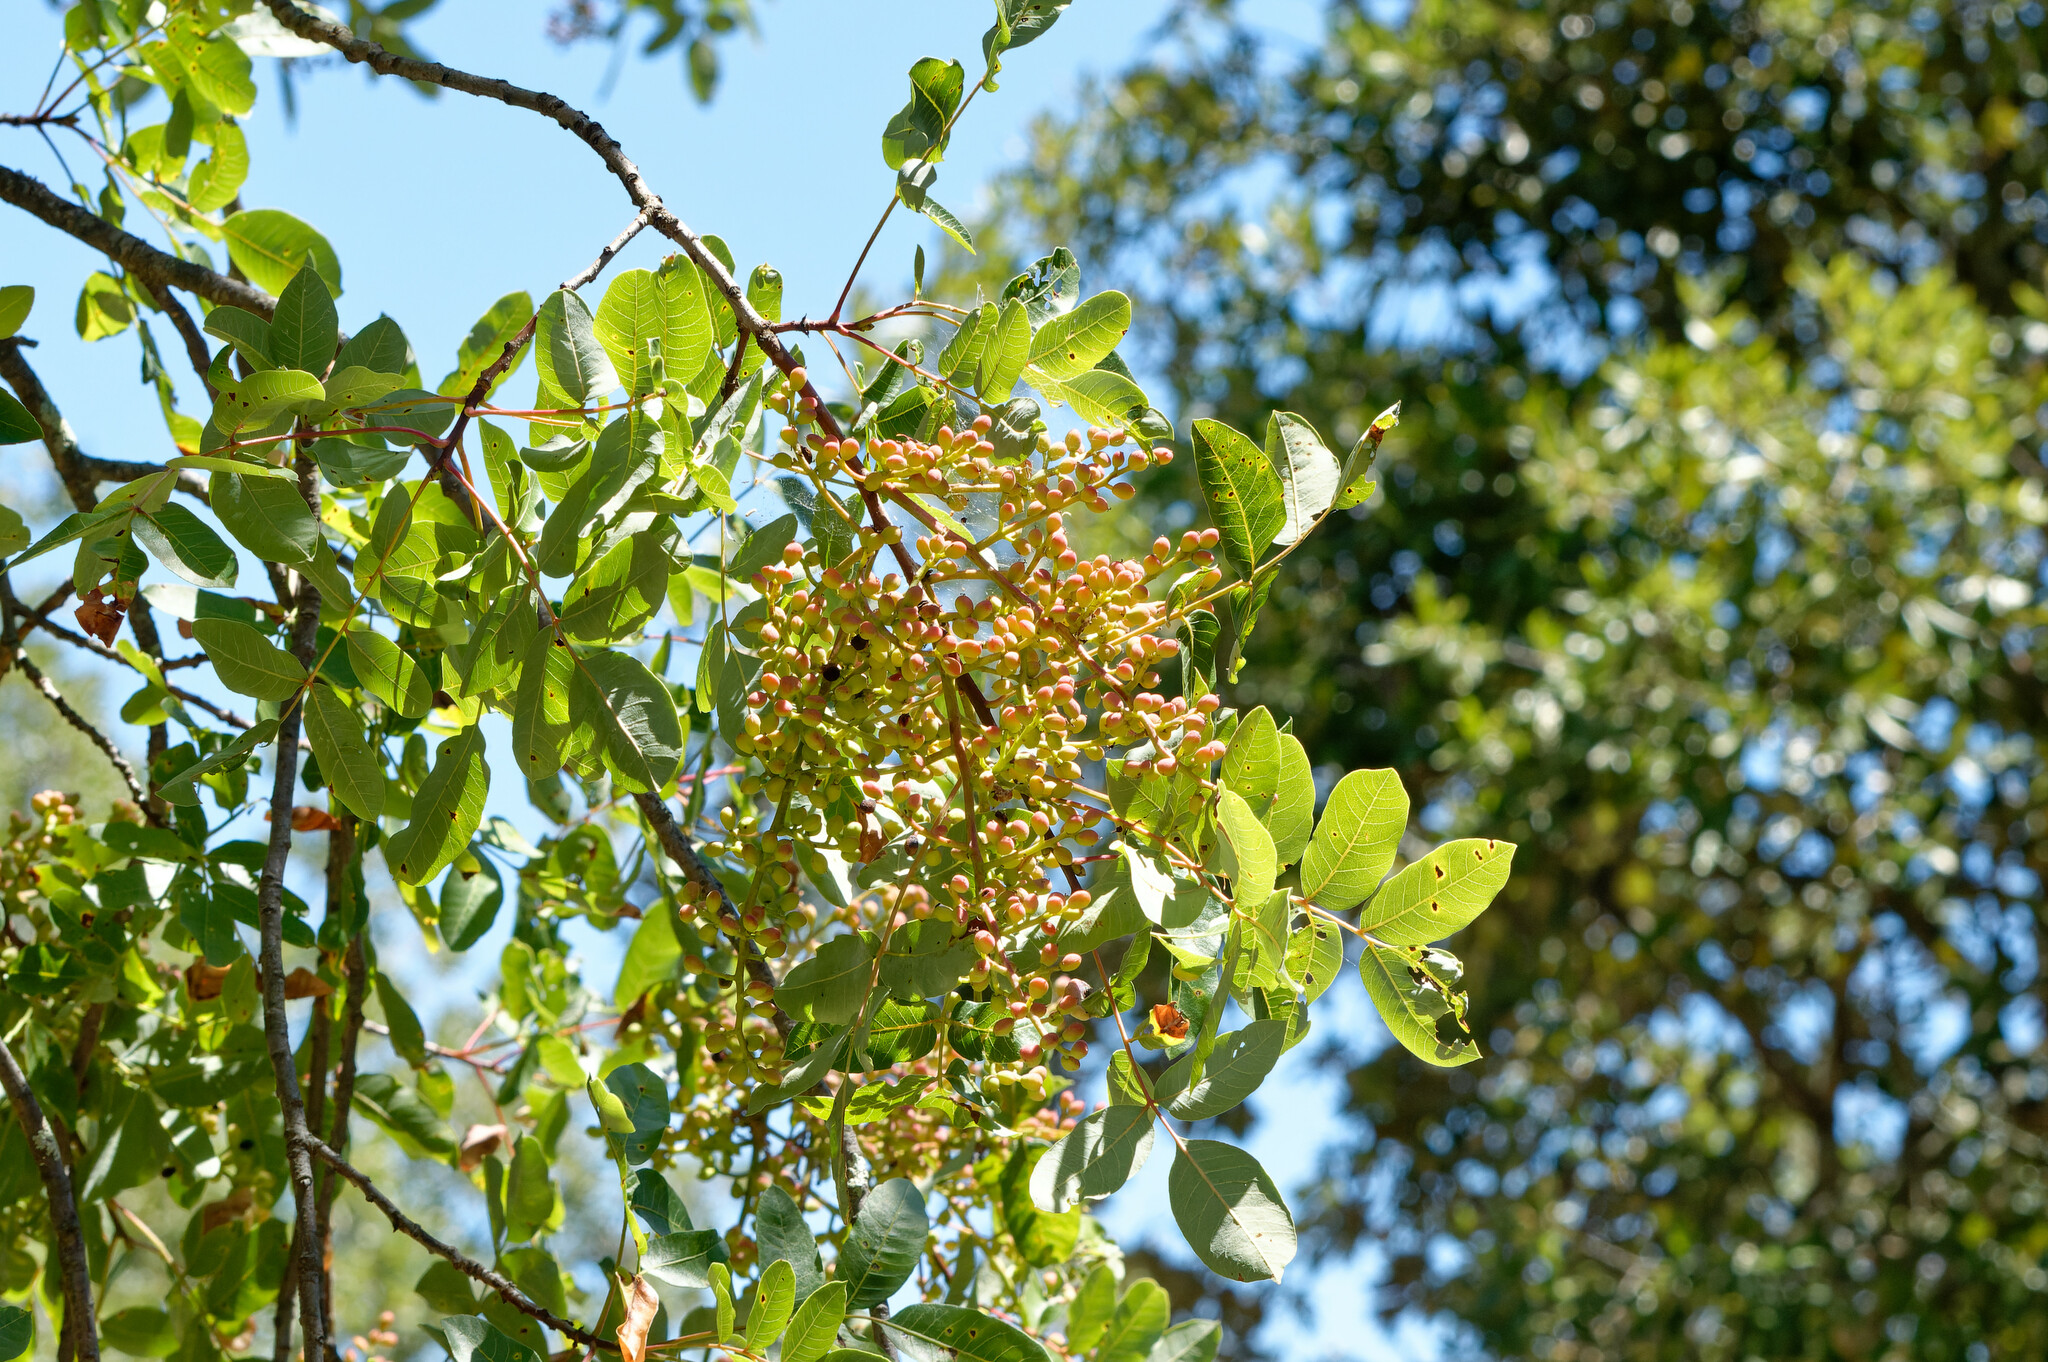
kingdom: Plantae
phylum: Tracheophyta
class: Magnoliopsida
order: Sapindales
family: Anacardiaceae
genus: Pistacia
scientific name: Pistacia terebinthus
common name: Terebinth
